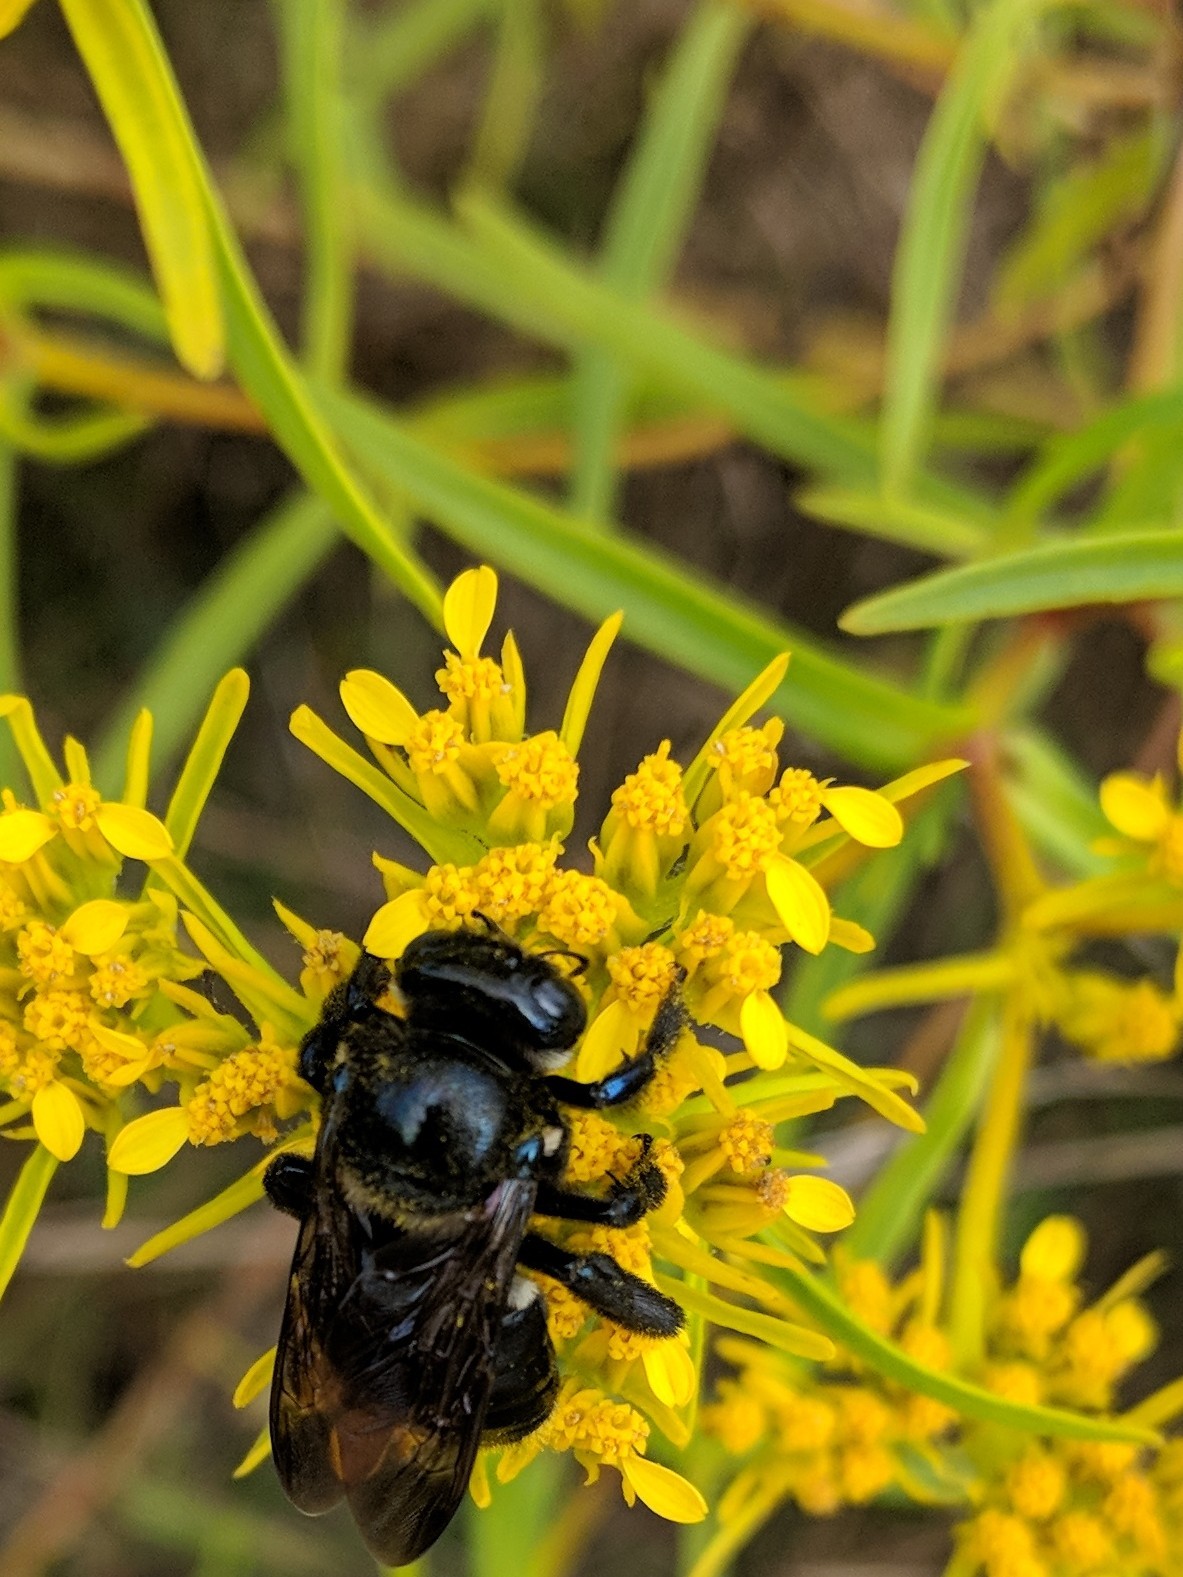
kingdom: Animalia
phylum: Arthropoda
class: Insecta
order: Hymenoptera
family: Apidae
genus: Xylocopa
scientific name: Xylocopa micans
